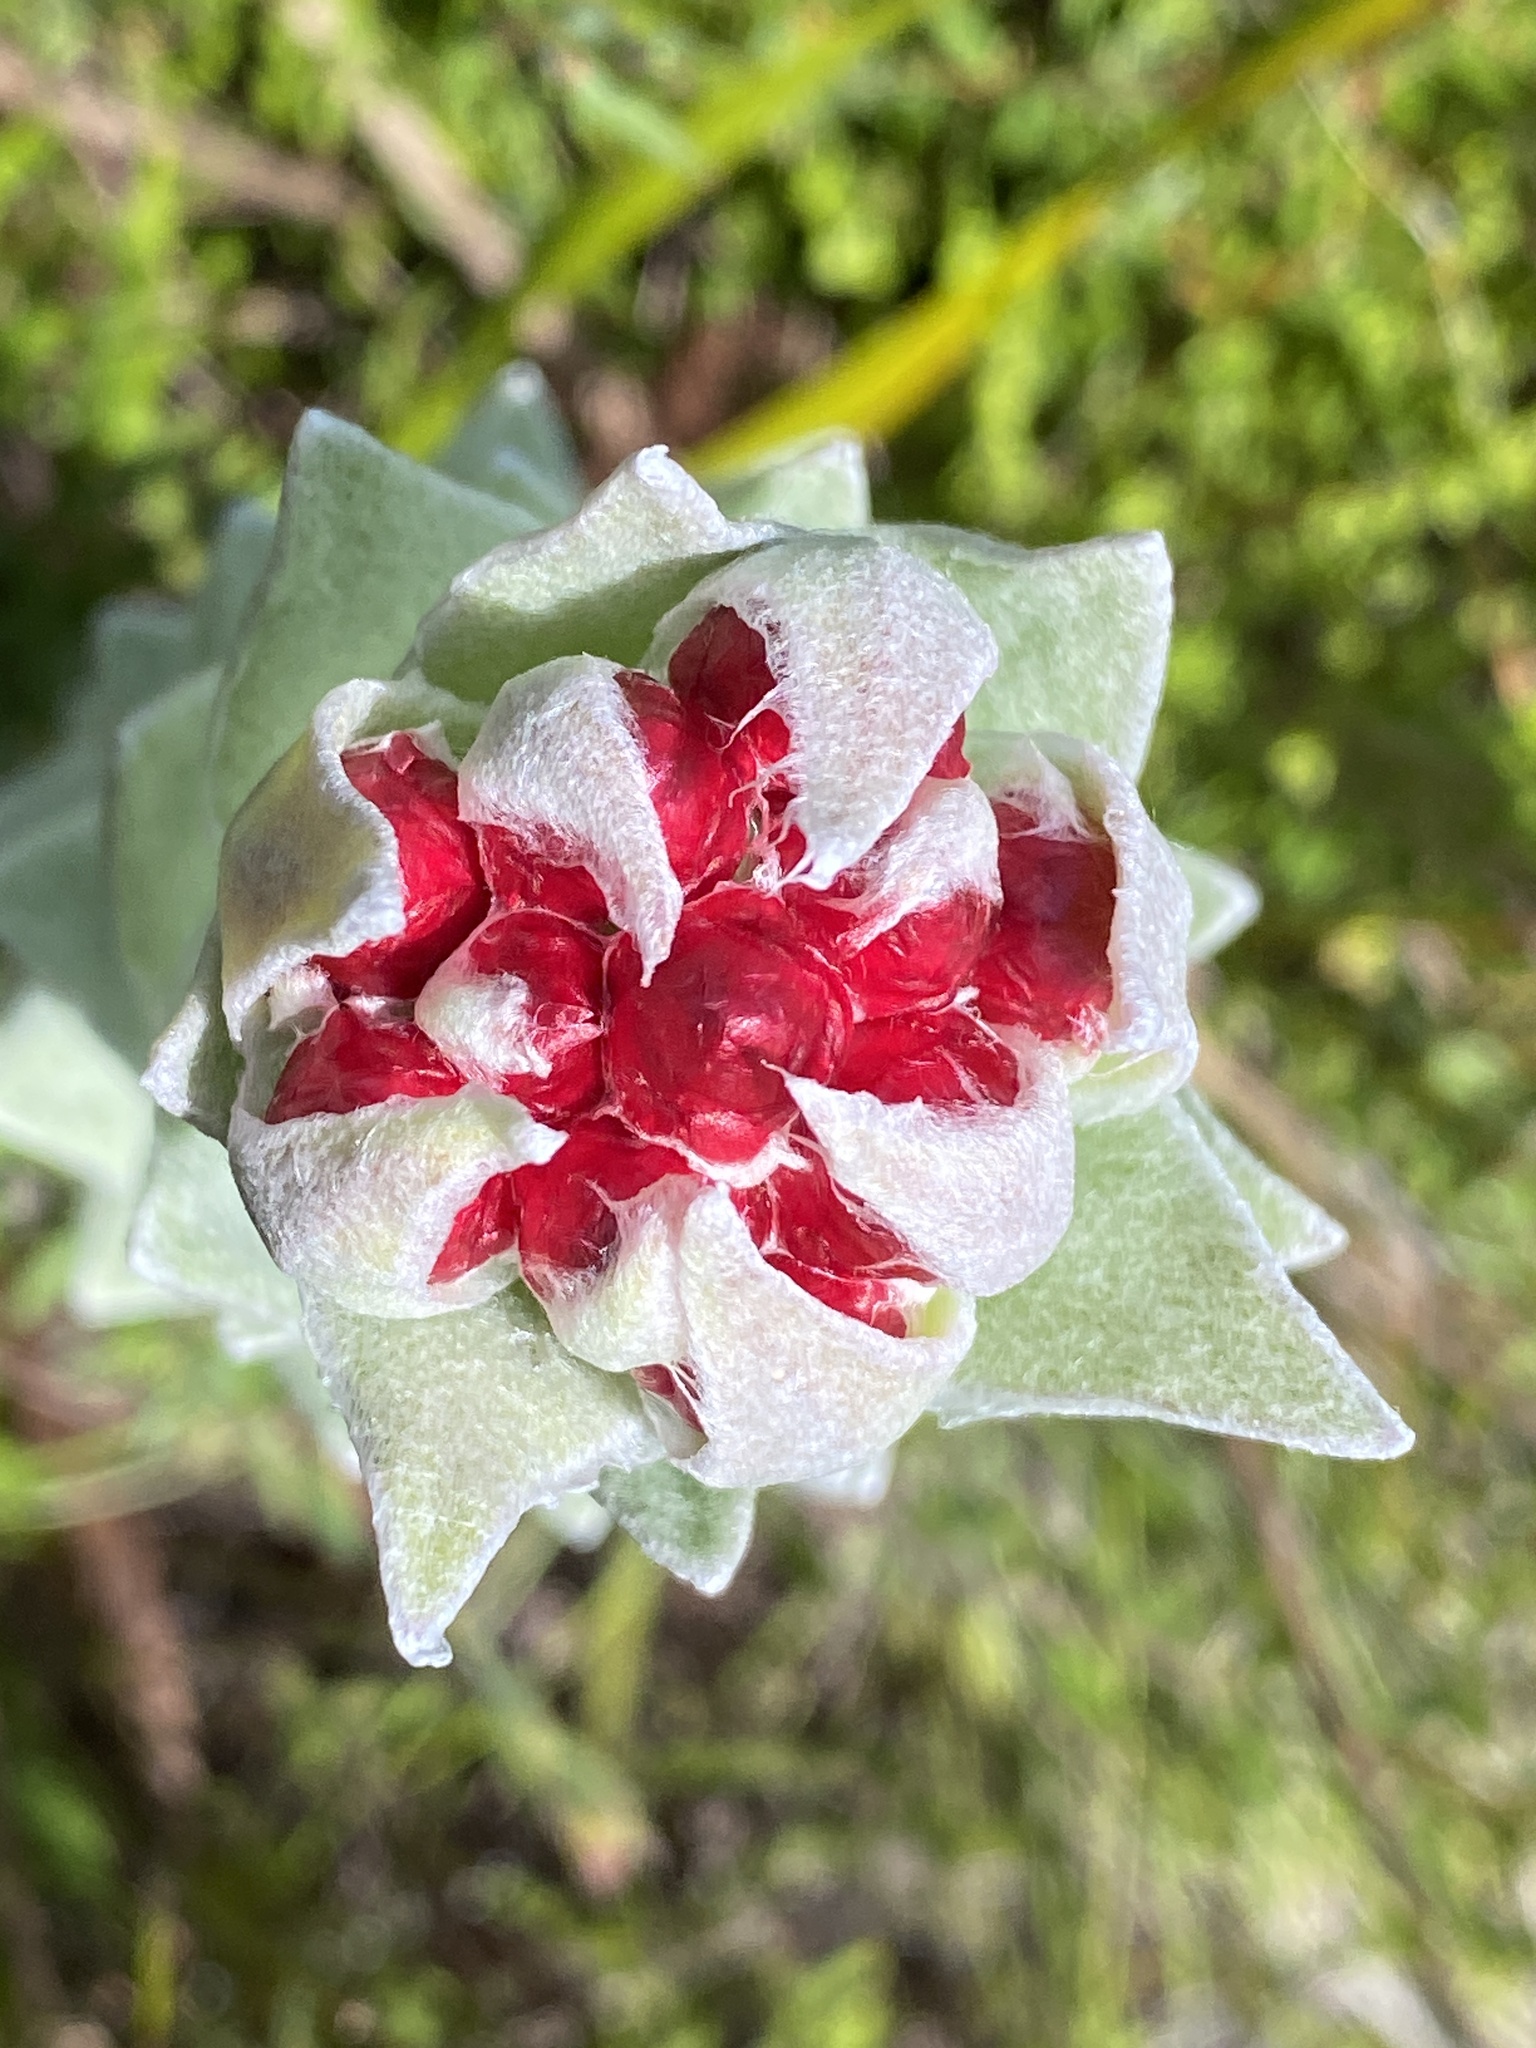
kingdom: Plantae
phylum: Tracheophyta
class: Magnoliopsida
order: Asterales
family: Asteraceae
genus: Syncarpha
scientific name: Syncarpha eximia
